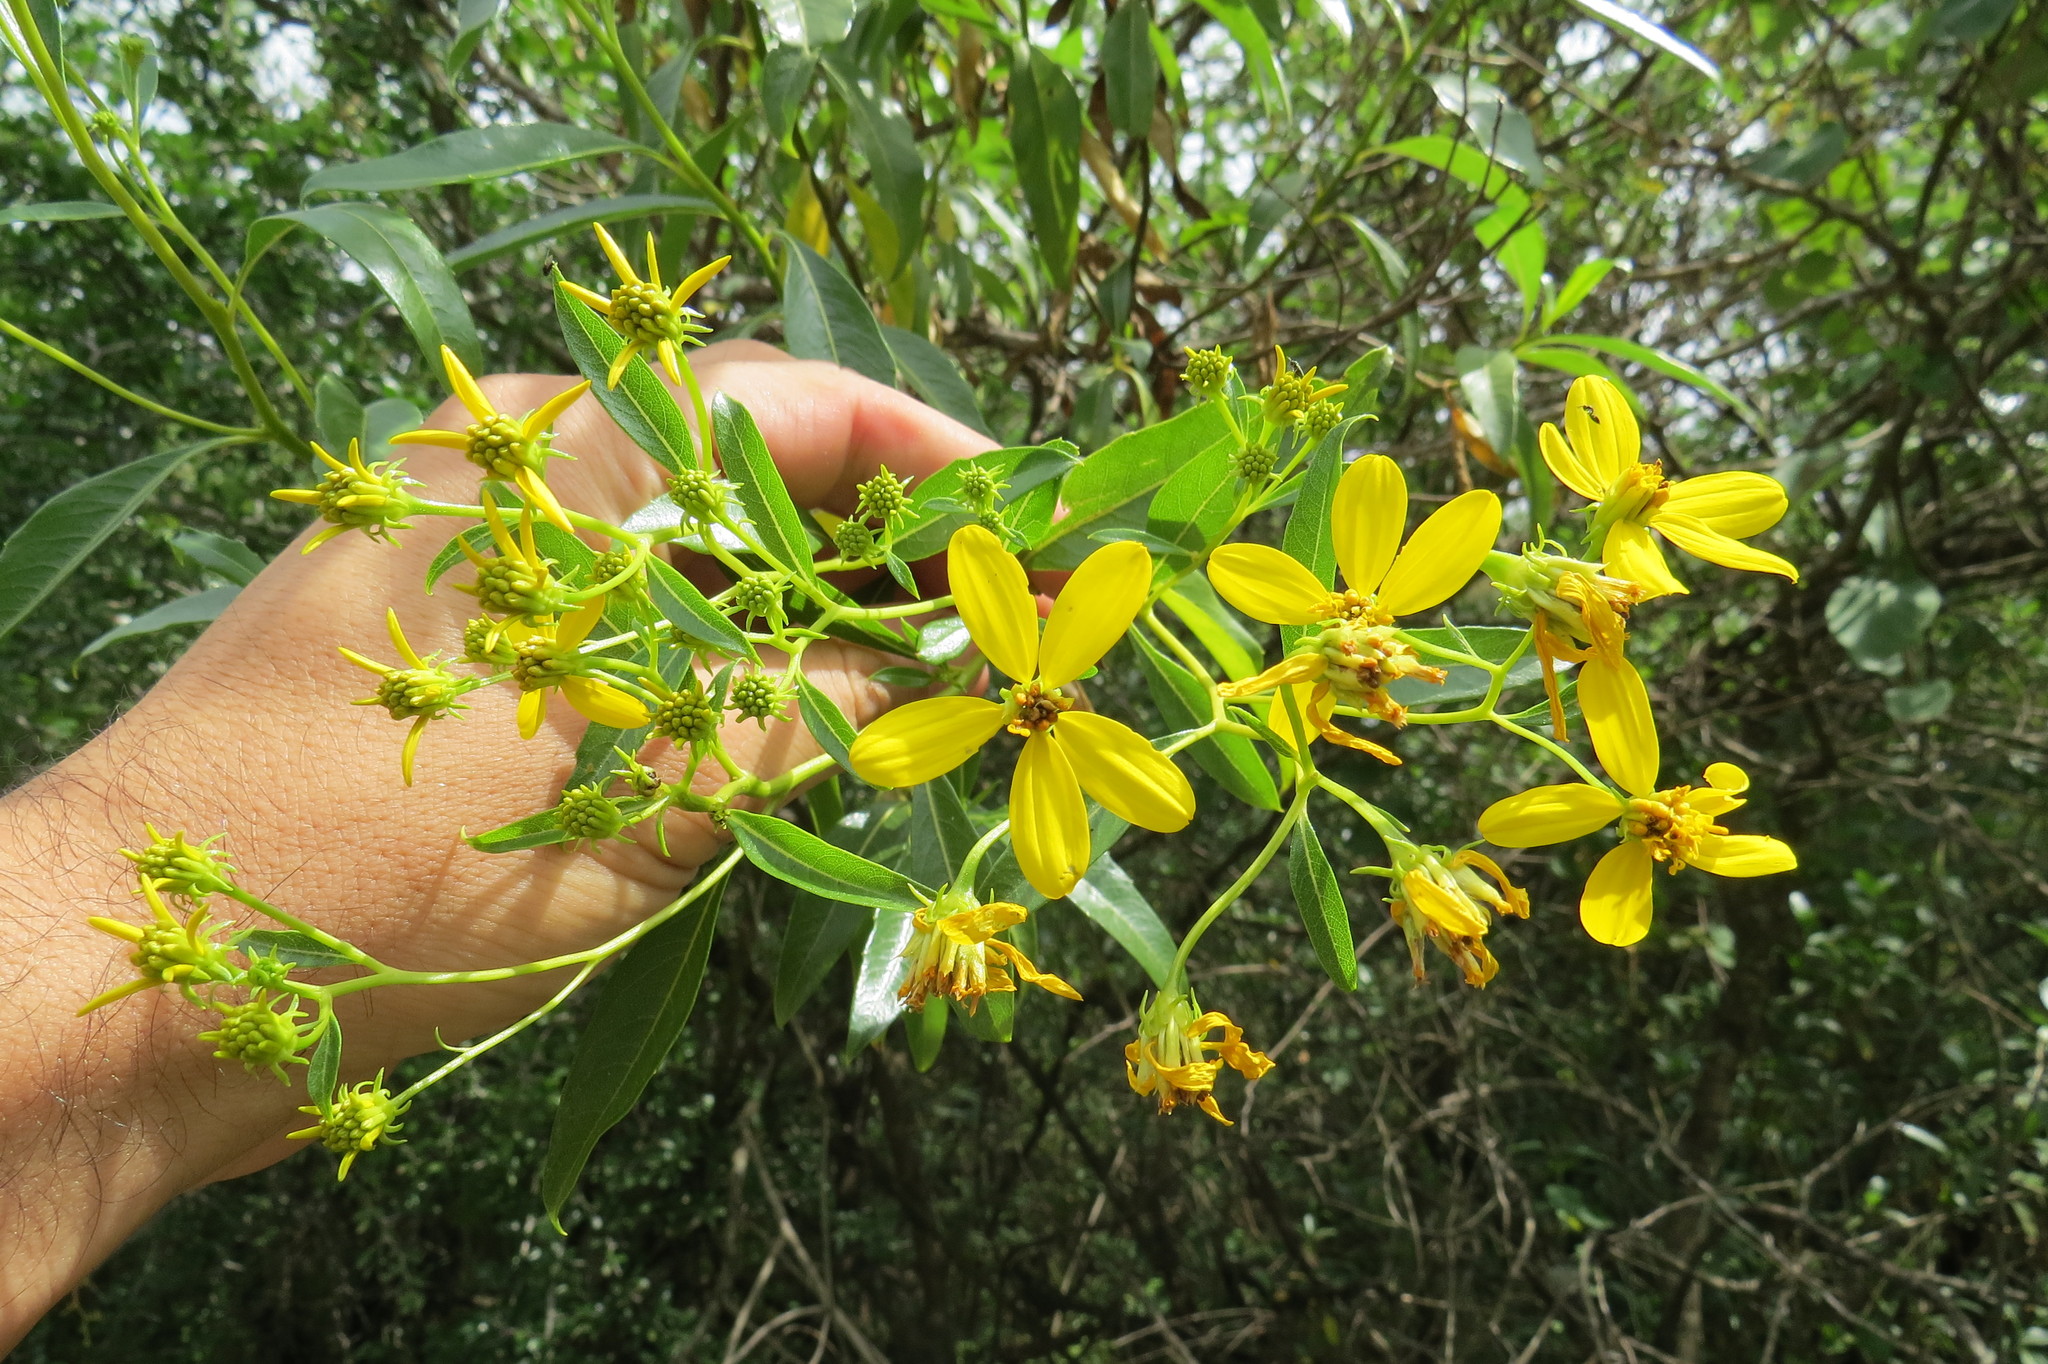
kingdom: Plantae
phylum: Tracheophyta
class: Magnoliopsida
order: Asterales
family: Asteraceae
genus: Flourensia
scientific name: Flourensia thurifera
